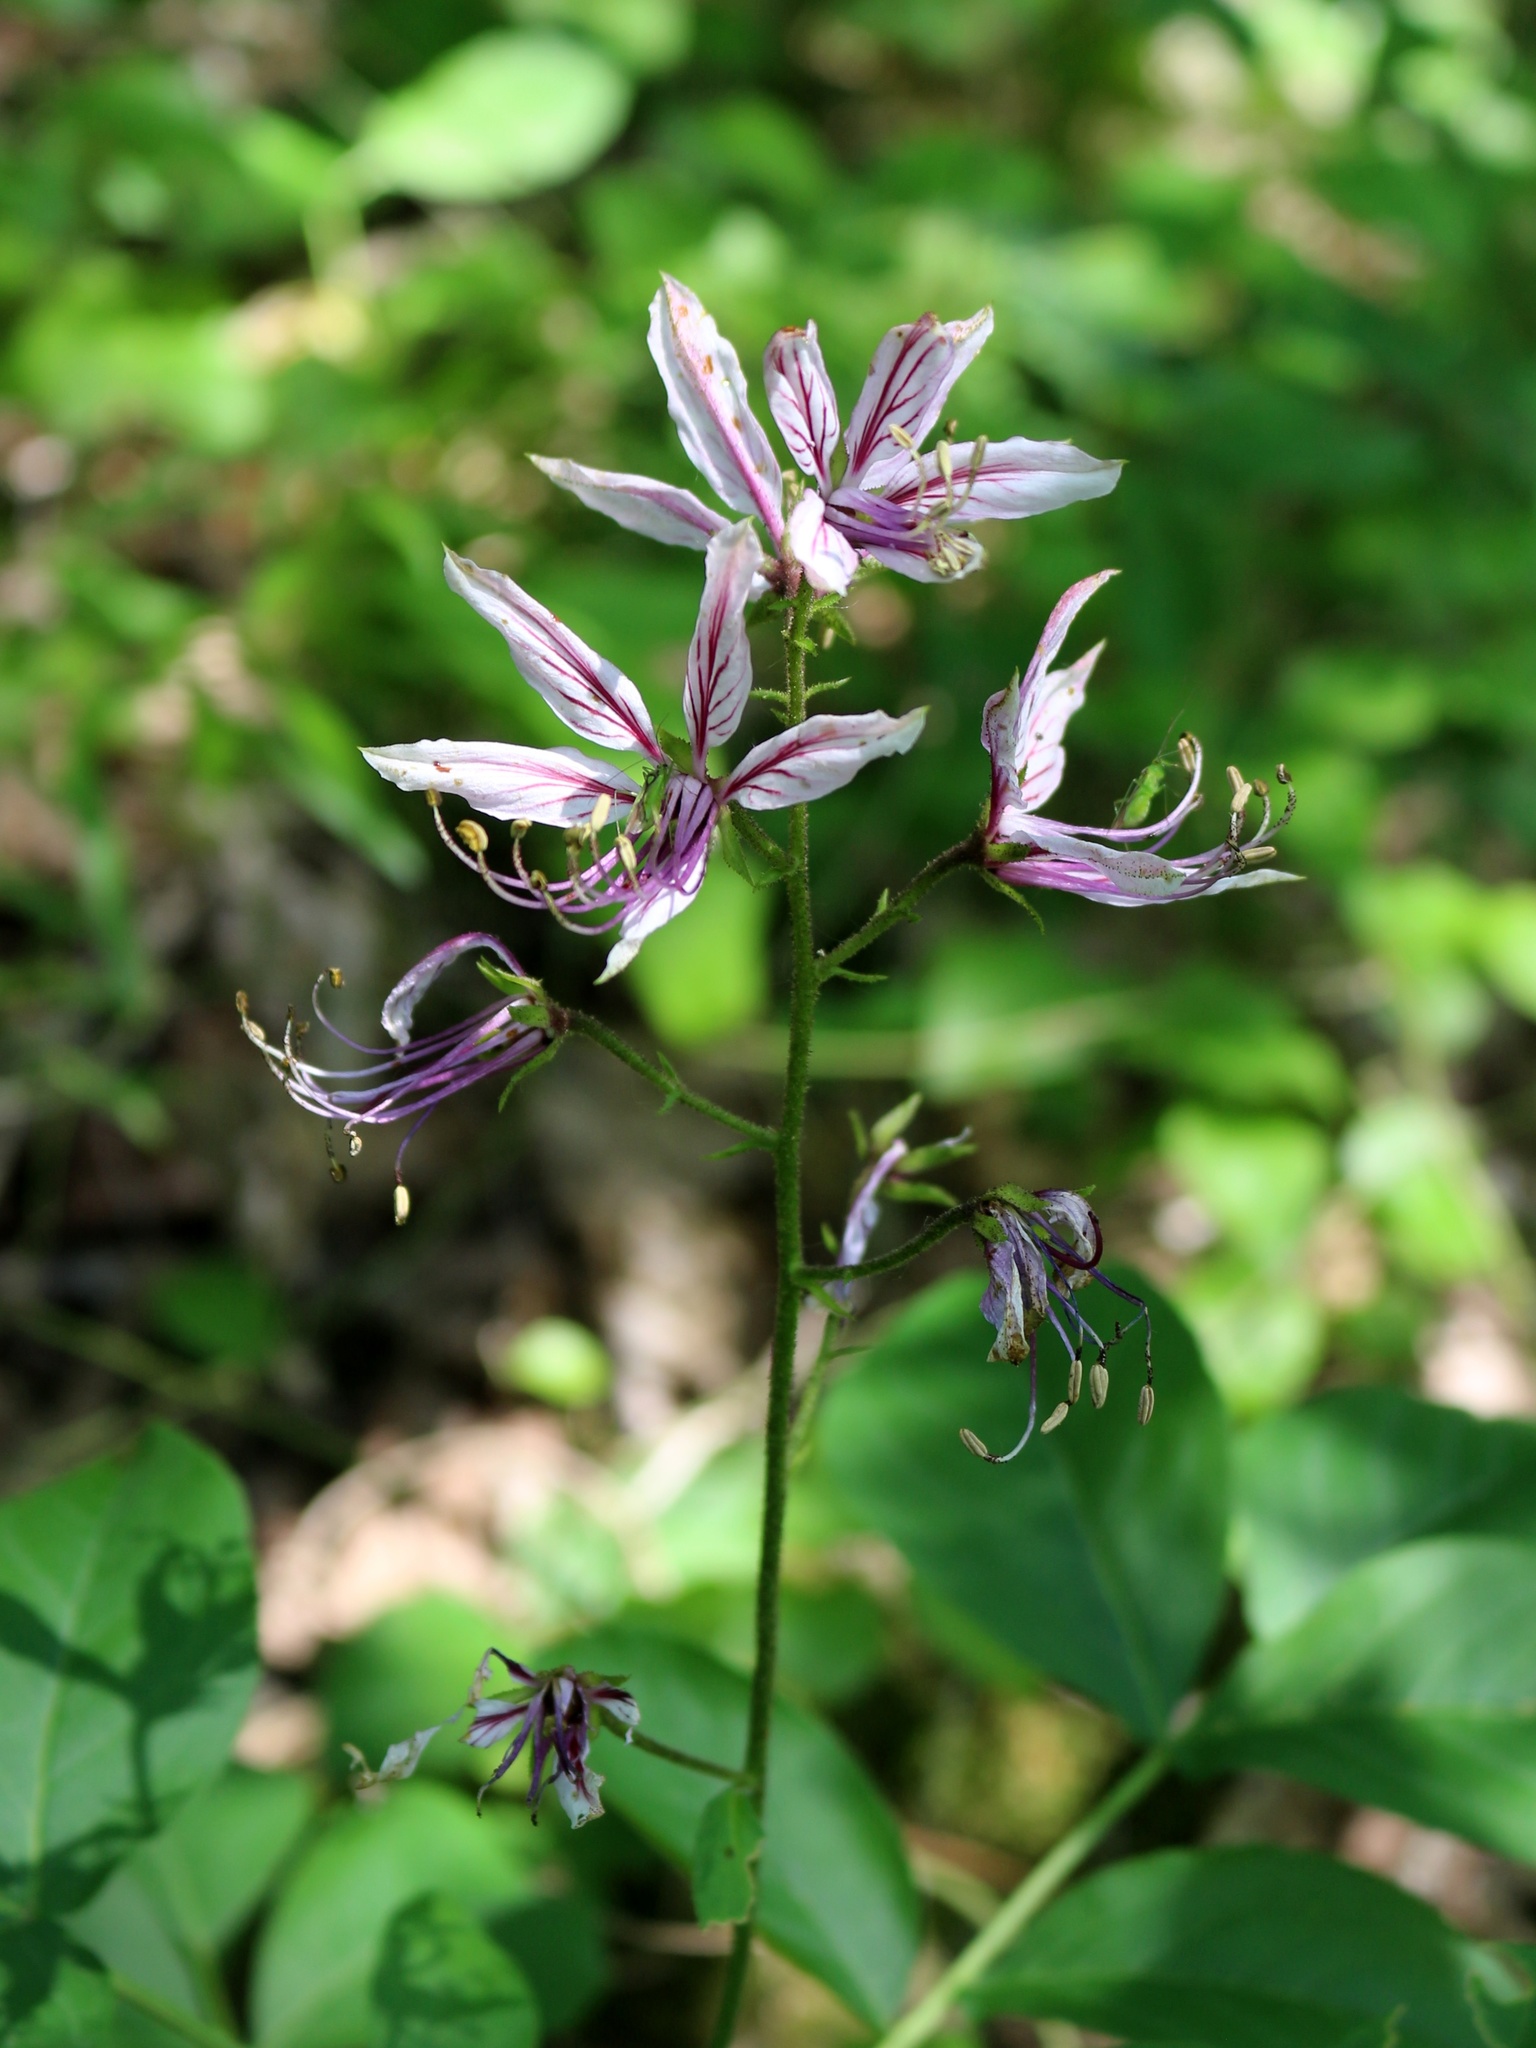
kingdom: Plantae
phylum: Tracheophyta
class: Magnoliopsida
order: Sapindales
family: Rutaceae
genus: Dictamnus
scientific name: Dictamnus albus
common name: Gasplant
